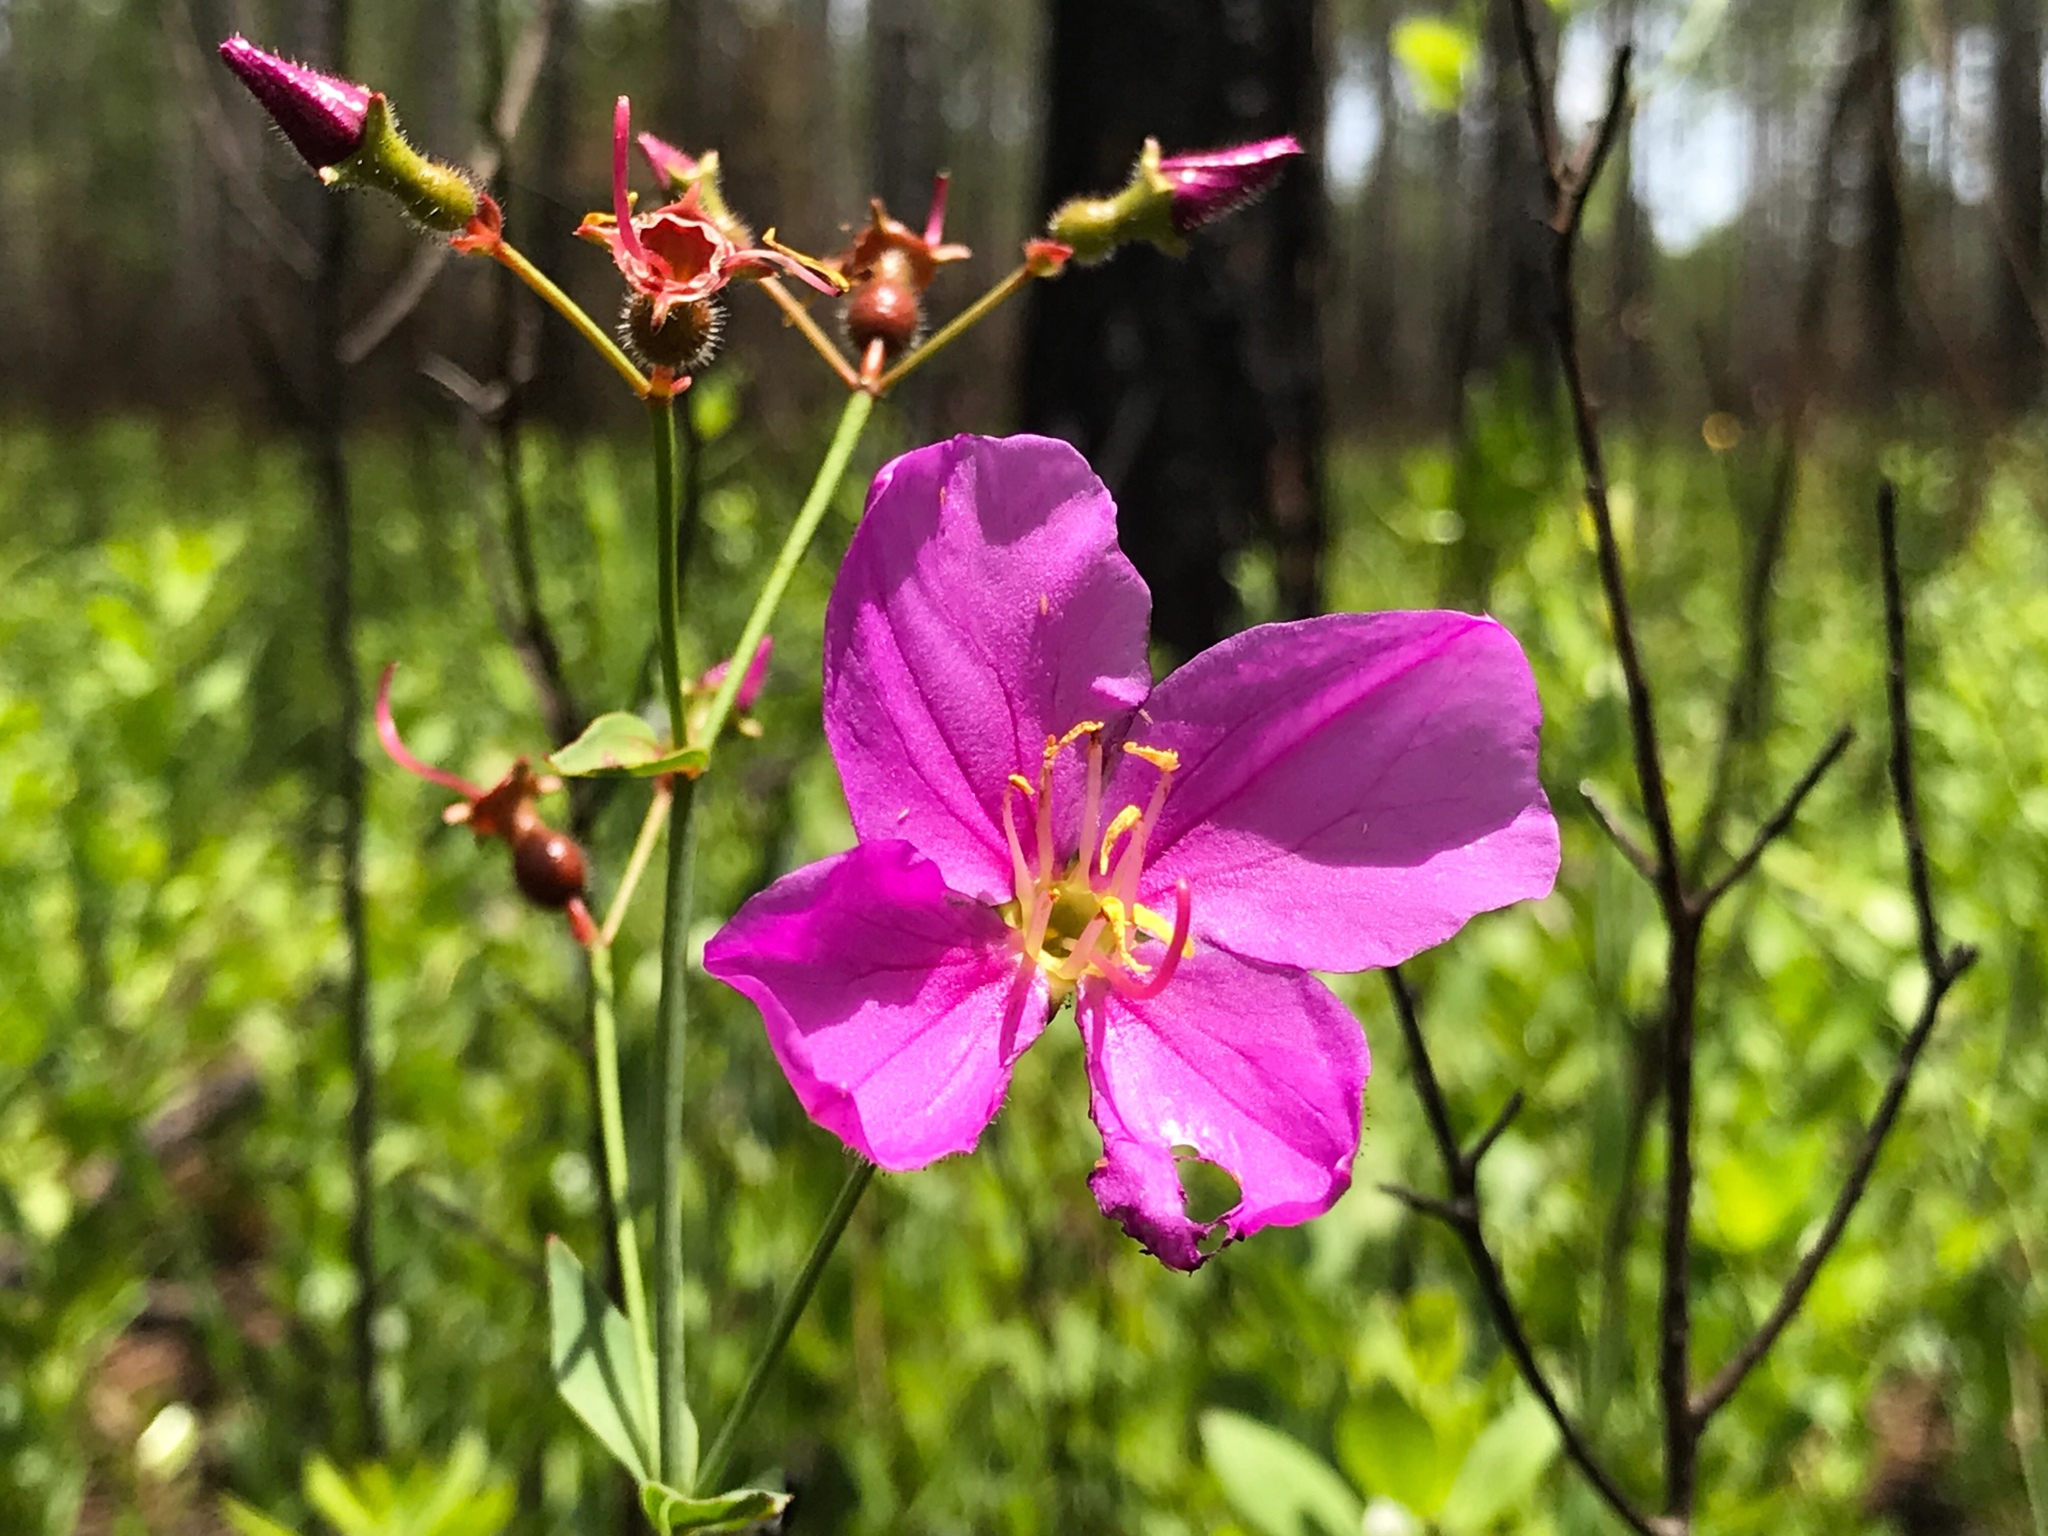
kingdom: Plantae
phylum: Tracheophyta
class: Magnoliopsida
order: Myrtales
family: Melastomataceae
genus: Rhexia
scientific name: Rhexia alifanus
